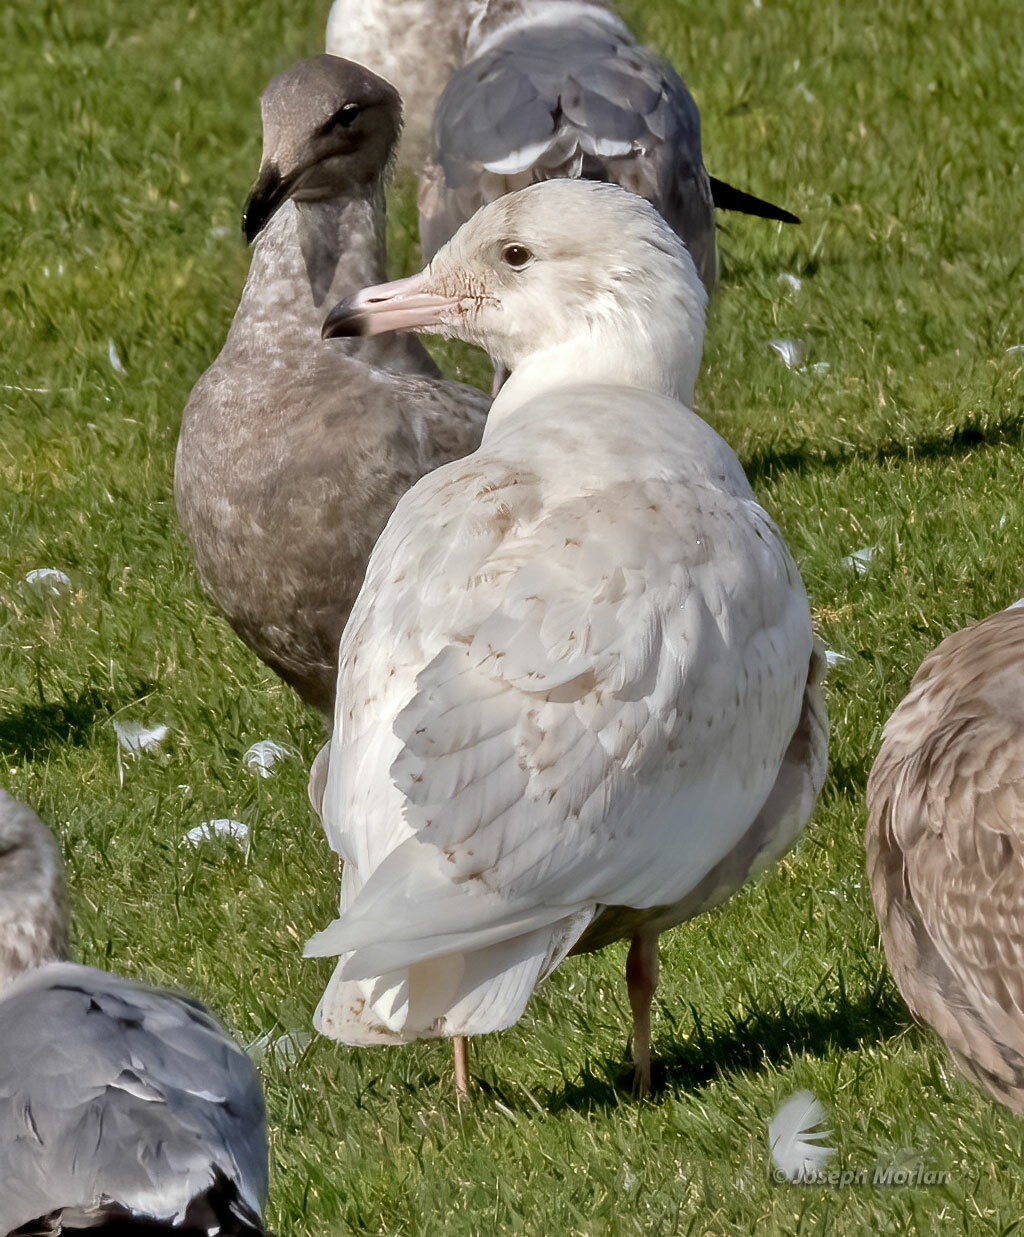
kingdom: Animalia
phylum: Chordata
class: Aves
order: Charadriiformes
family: Laridae
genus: Larus
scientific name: Larus hyperboreus
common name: Glaucous gull
